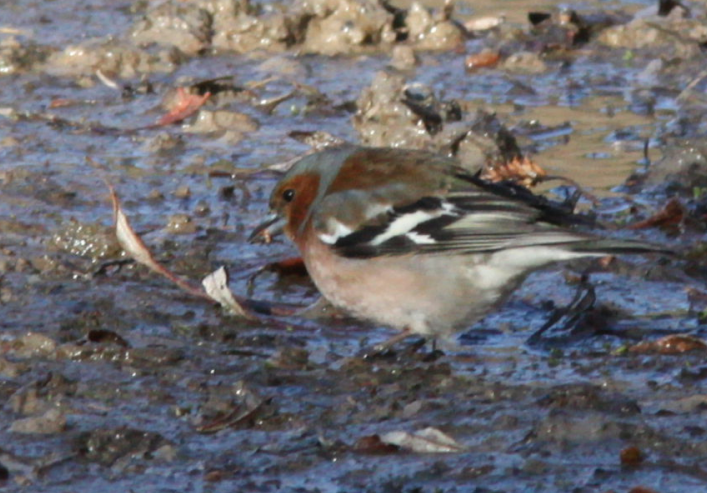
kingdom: Animalia
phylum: Chordata
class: Aves
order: Passeriformes
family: Fringillidae
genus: Fringilla
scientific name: Fringilla coelebs
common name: Common chaffinch
